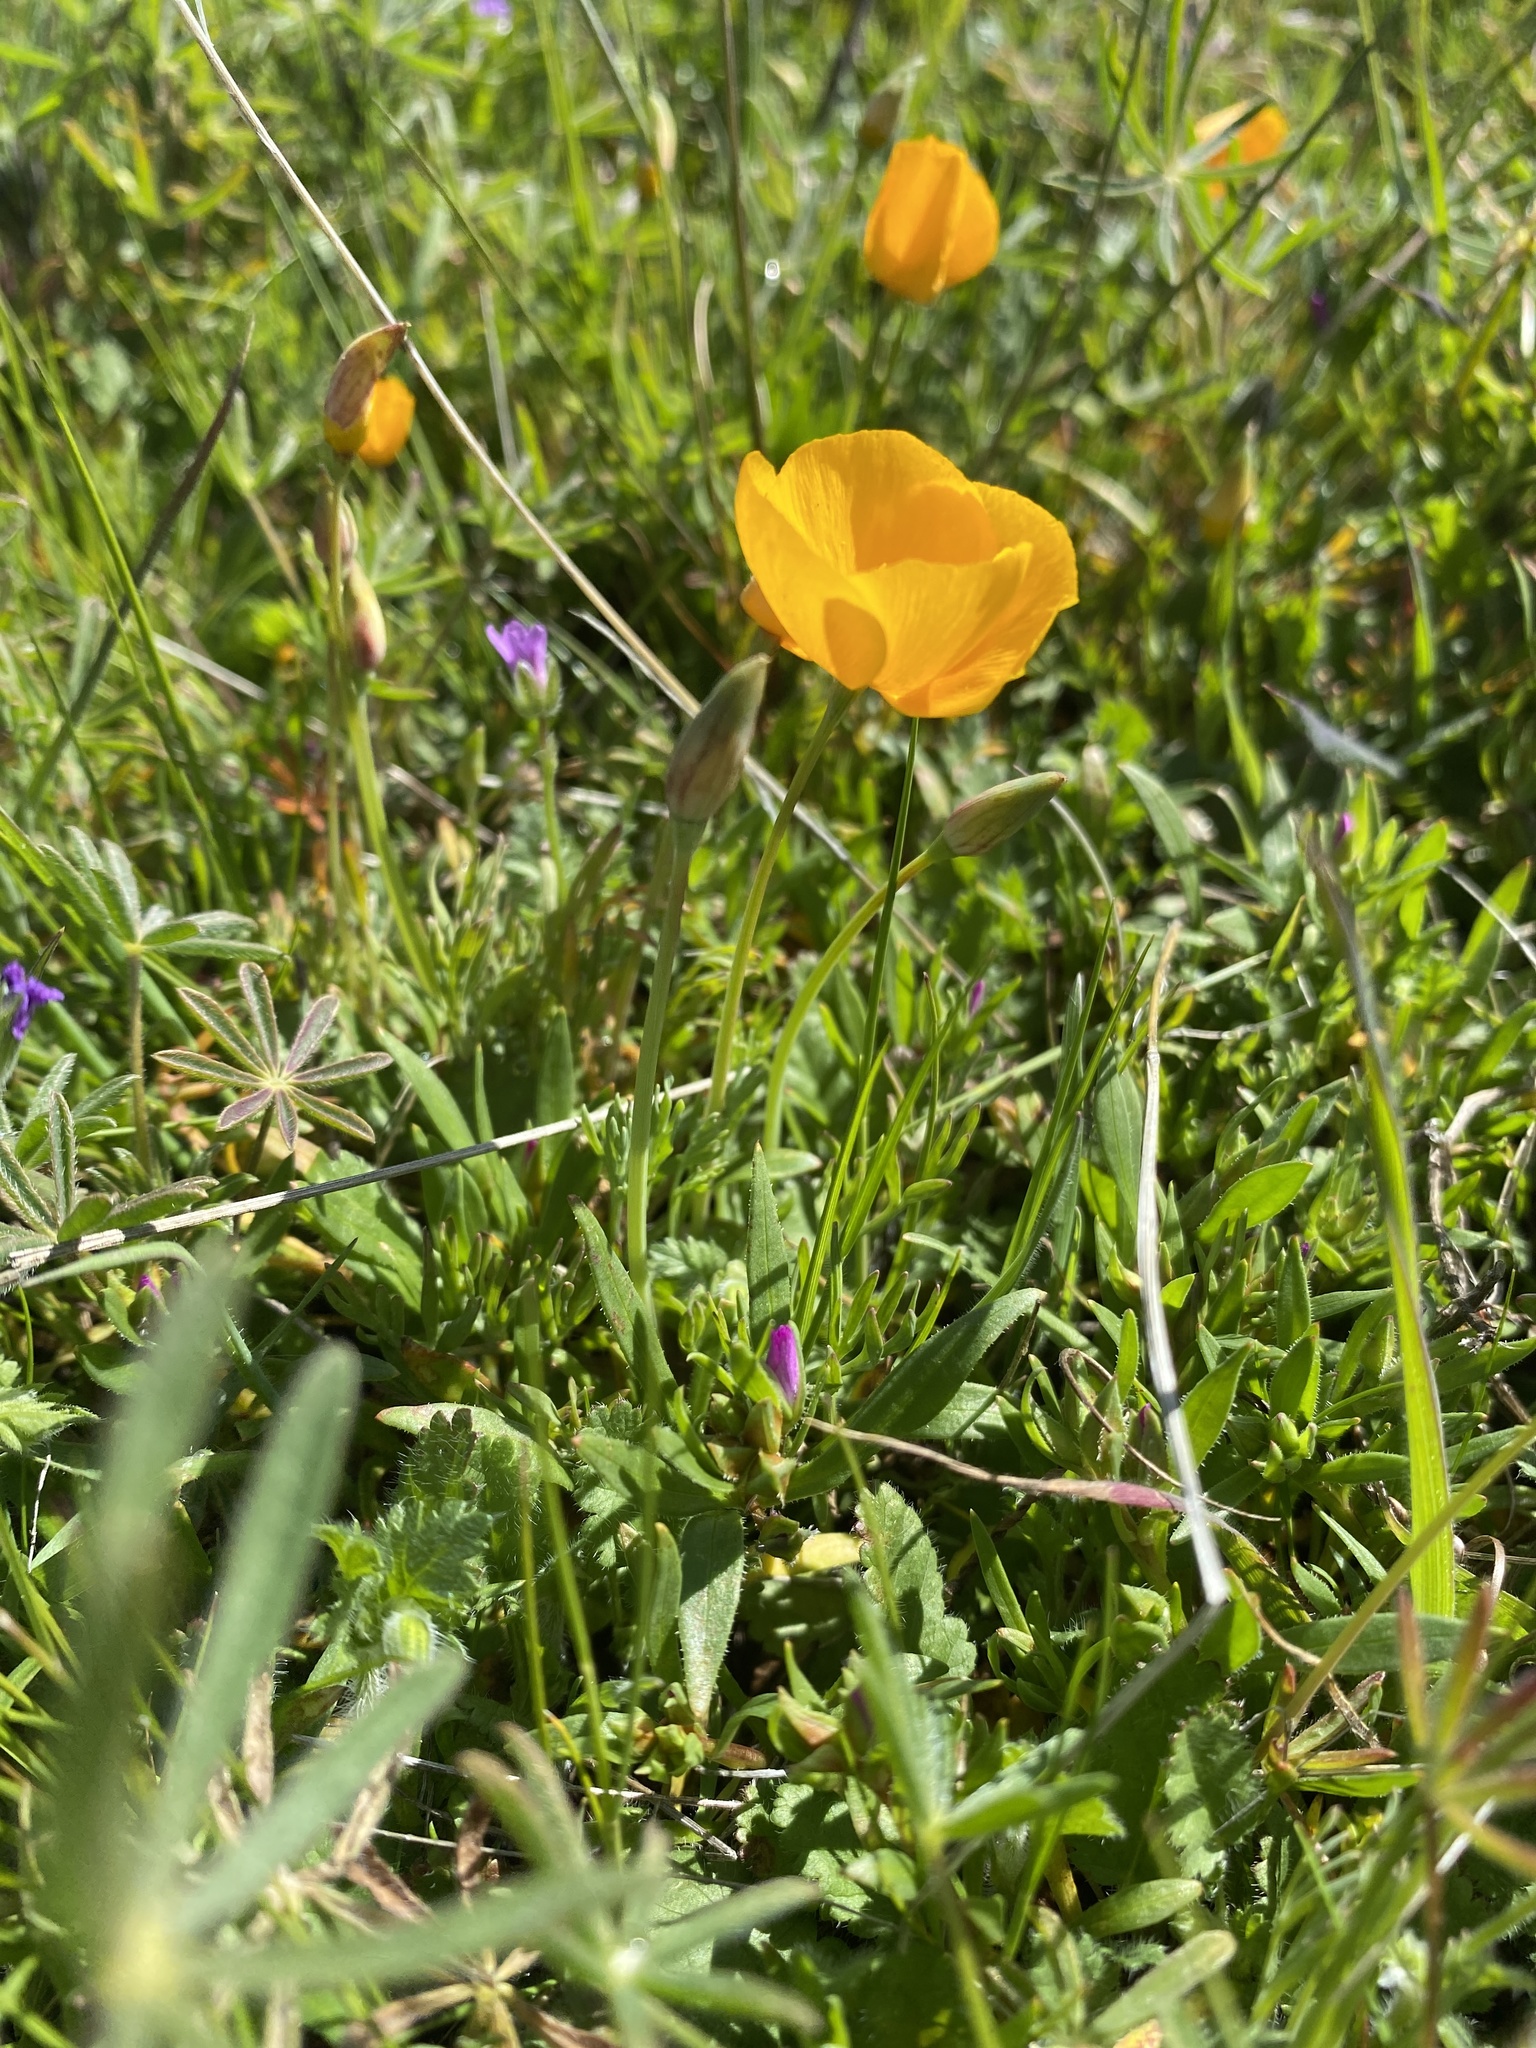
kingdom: Plantae
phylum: Tracheophyta
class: Magnoliopsida
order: Ranunculales
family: Papaveraceae
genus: Eschscholzia
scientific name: Eschscholzia lobbii
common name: Frying-pans
